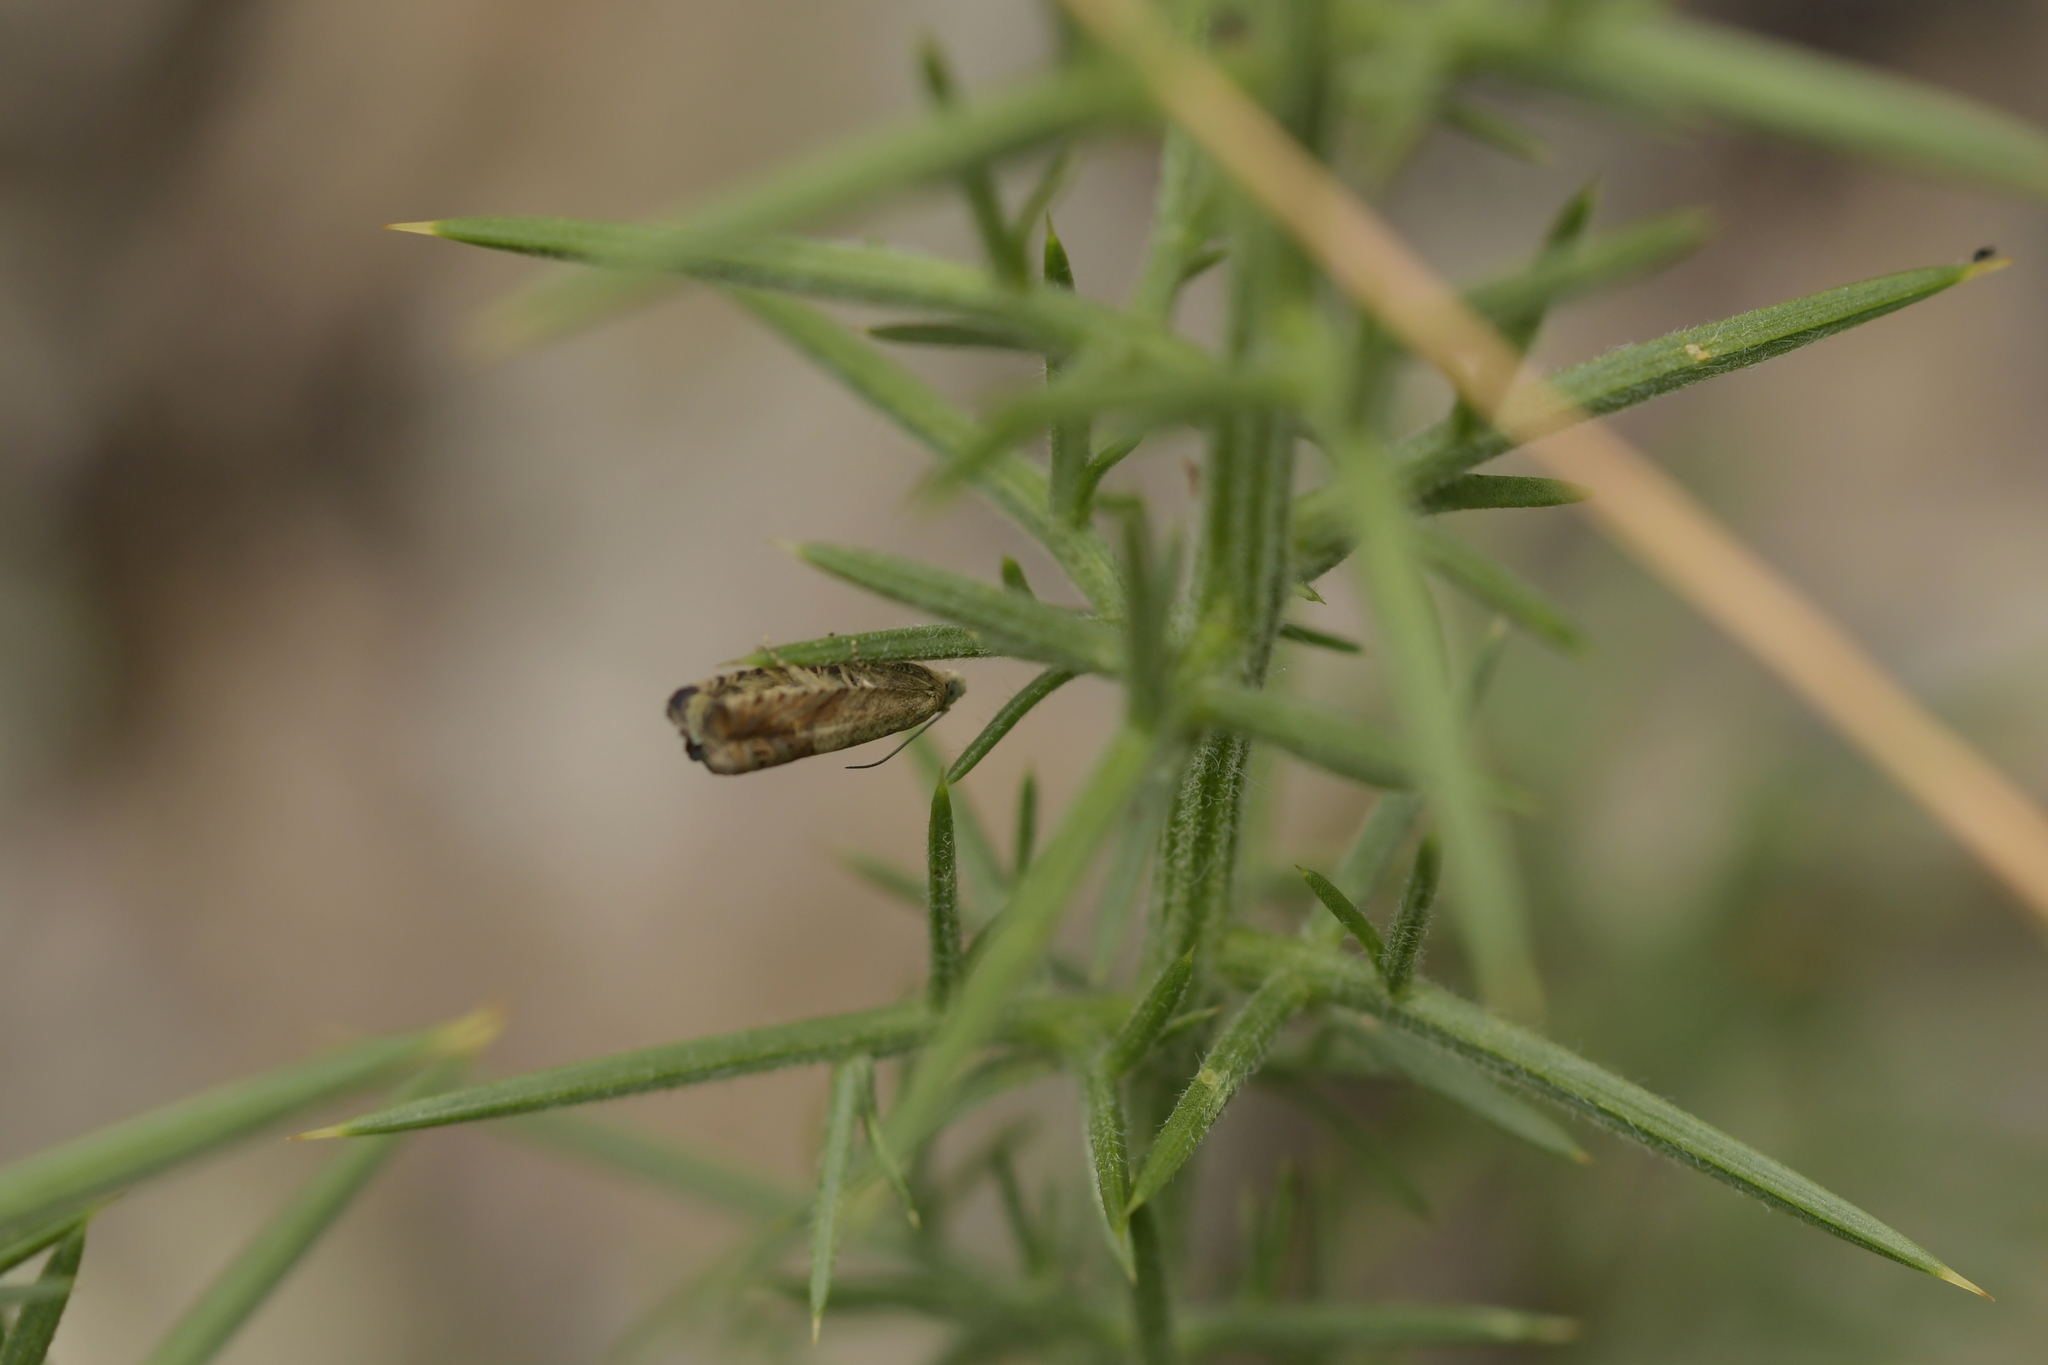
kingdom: Animalia
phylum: Arthropoda
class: Insecta
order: Lepidoptera
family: Tortricidae
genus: Cydia
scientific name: Cydia succedana
